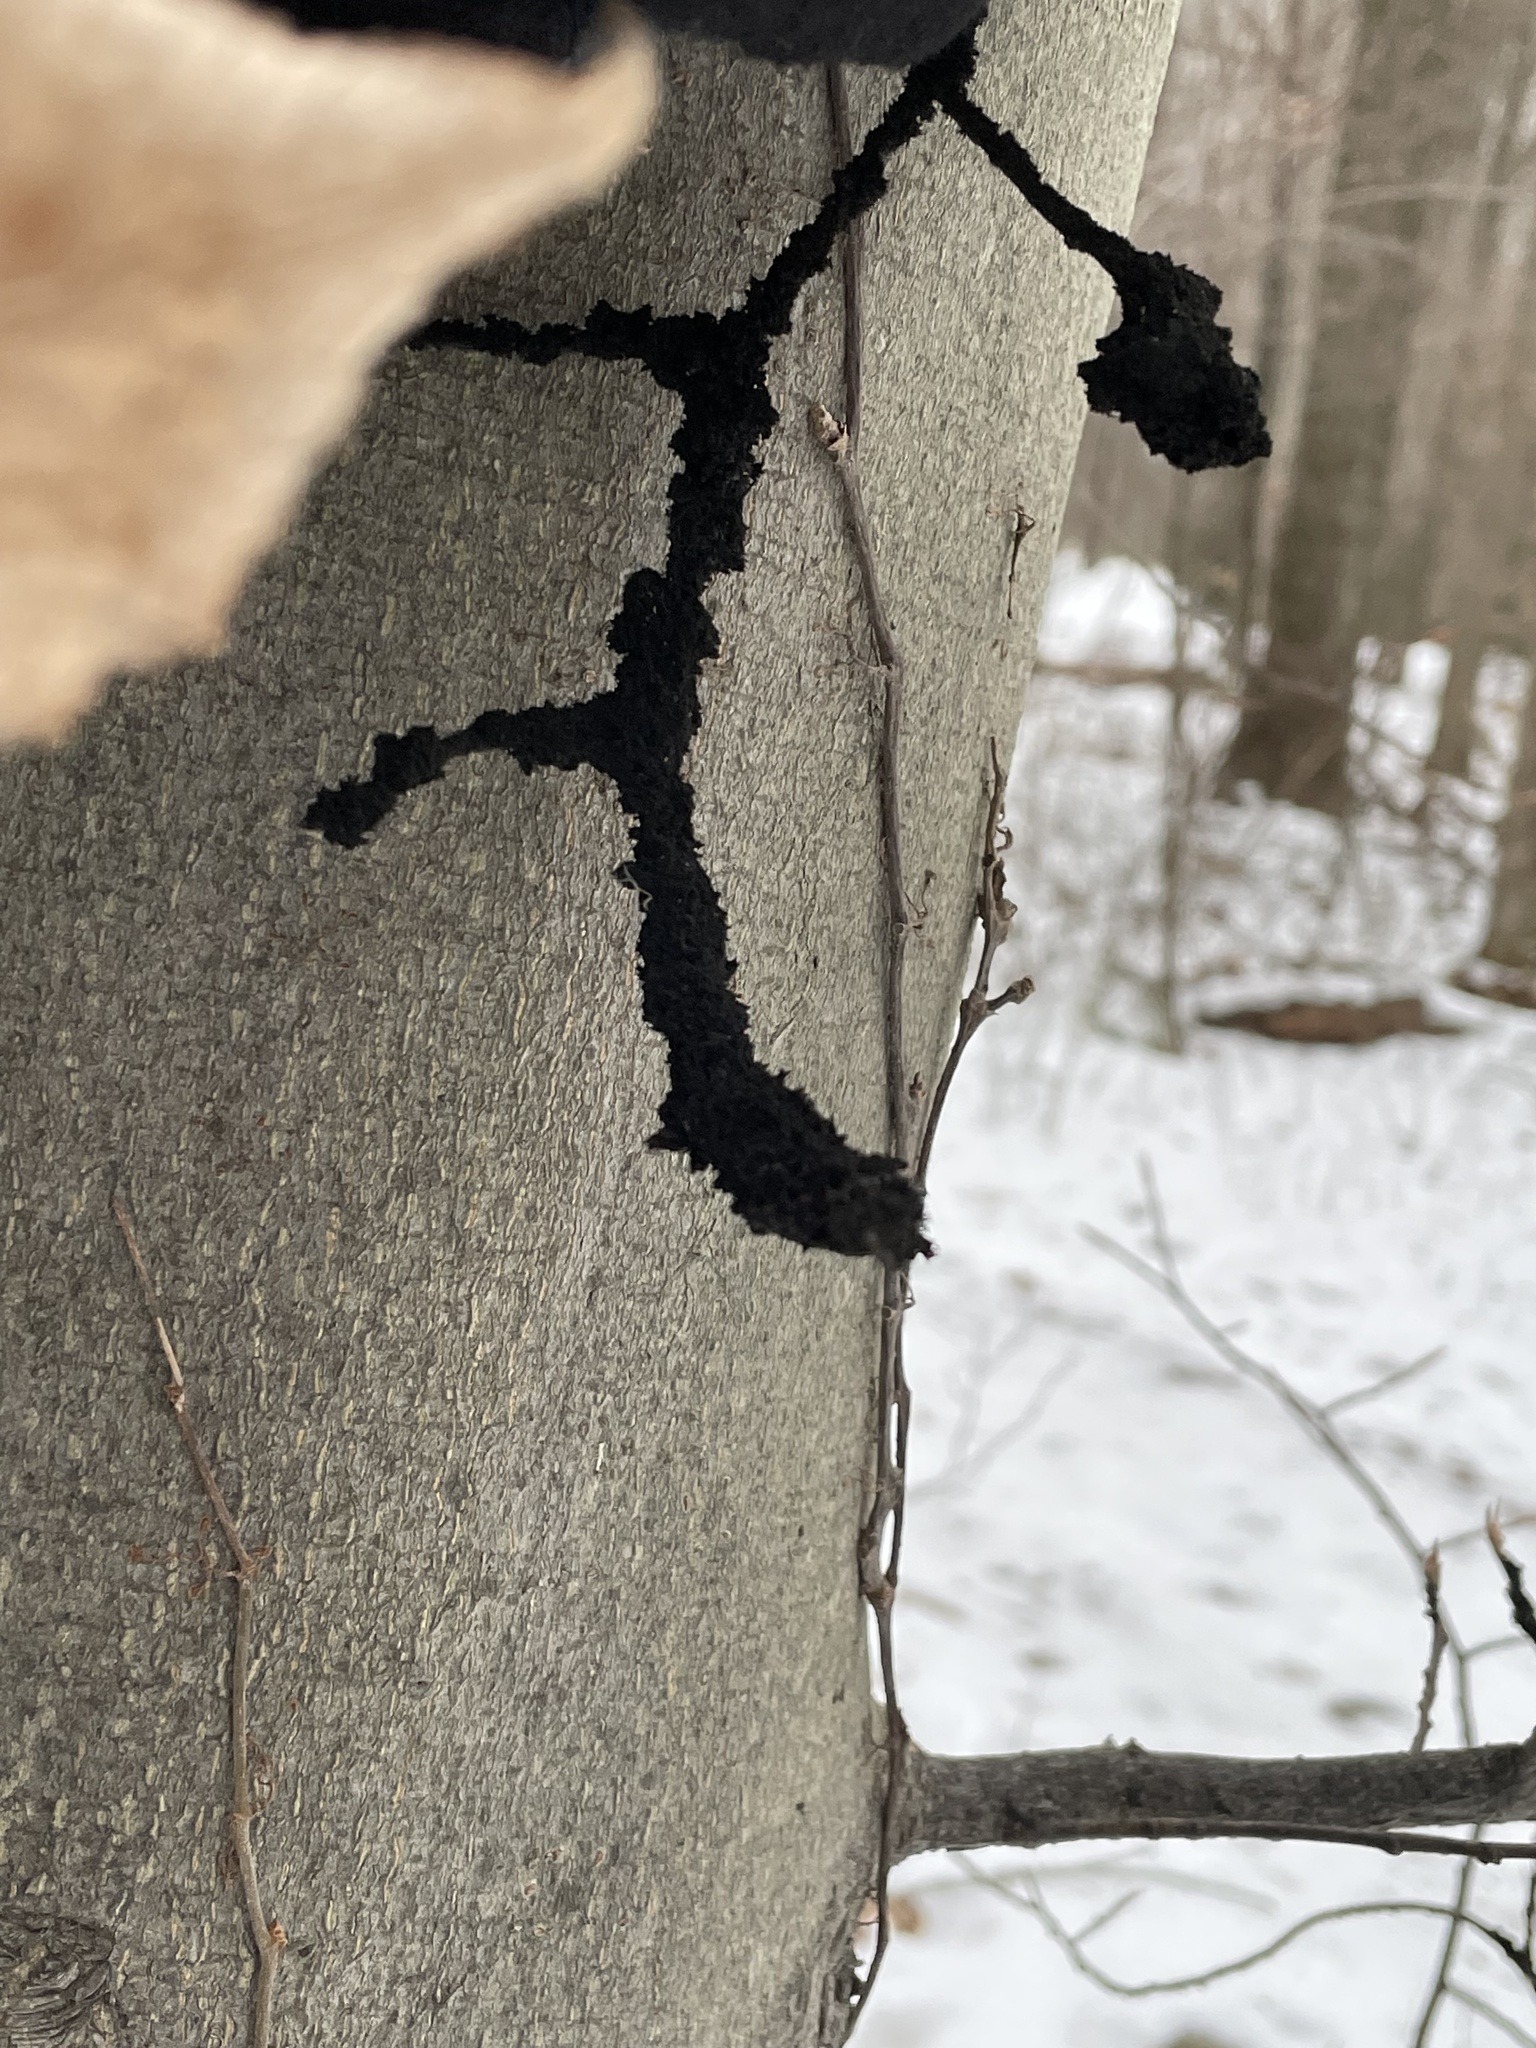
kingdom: Fungi
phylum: Ascomycota
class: Dothideomycetes
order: Capnodiales
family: Capnodiaceae
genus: Scorias
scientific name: Scorias spongiosa
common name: Black sooty mold
